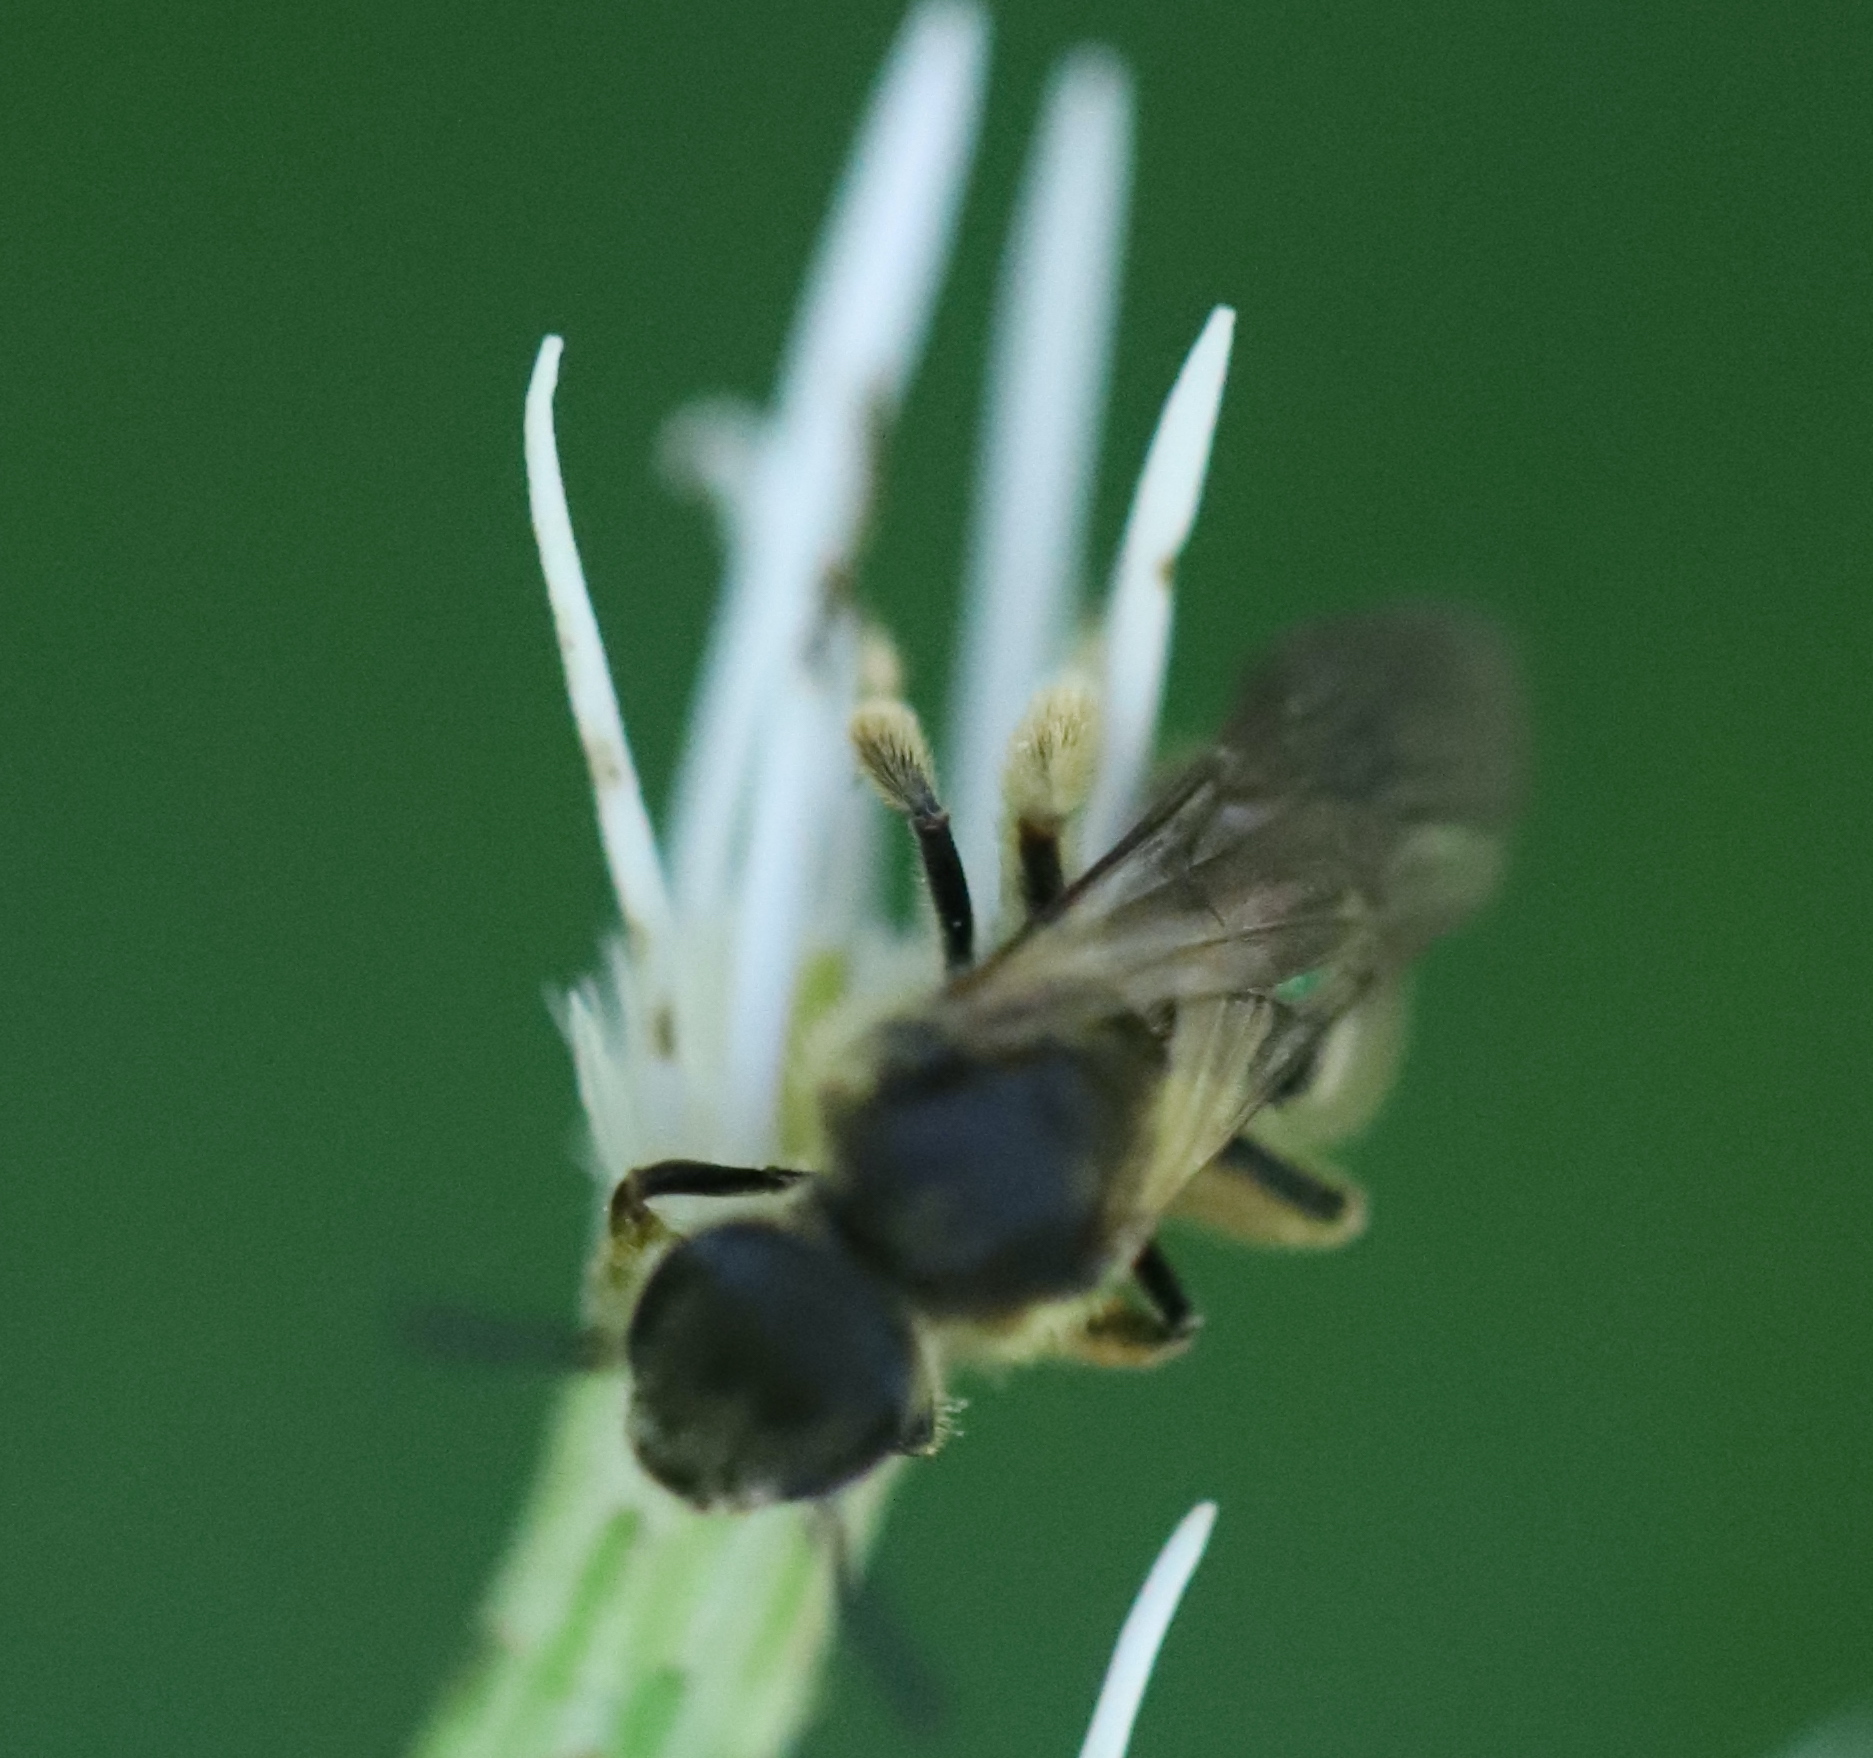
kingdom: Animalia
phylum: Arthropoda
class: Insecta
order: Hymenoptera
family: Halictidae
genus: Lasioglossum
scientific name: Lasioglossum quebecense
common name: Quebec sweat bee
